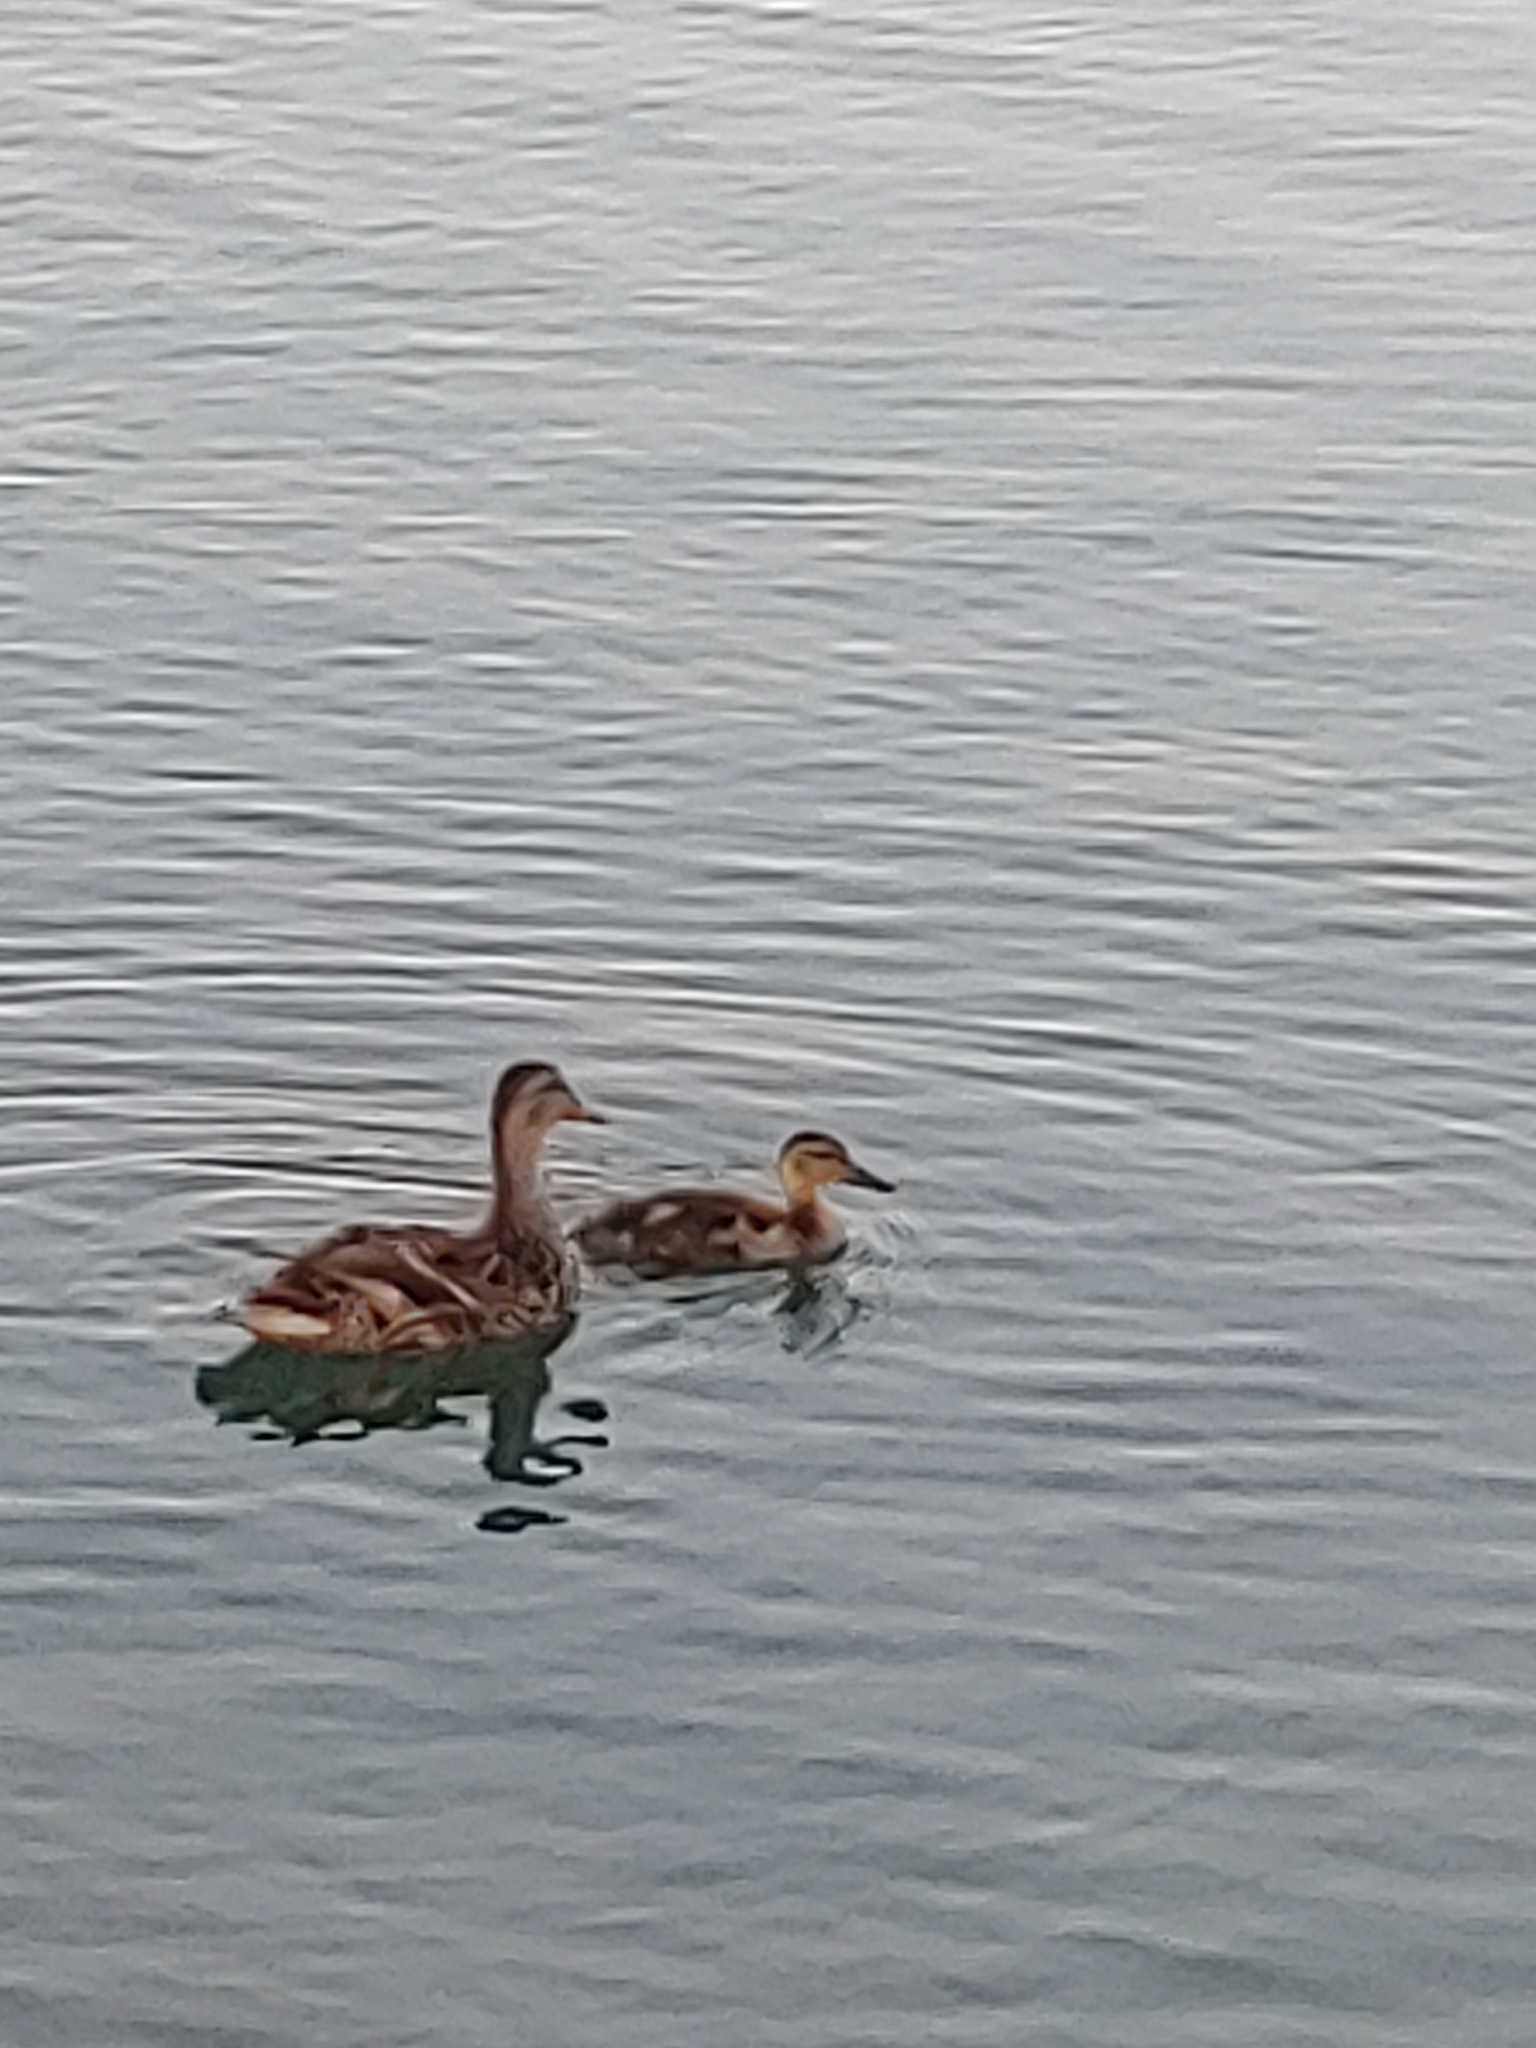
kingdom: Animalia
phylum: Chordata
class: Aves
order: Anseriformes
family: Anatidae
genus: Anas
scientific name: Anas platyrhynchos
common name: Mallard
